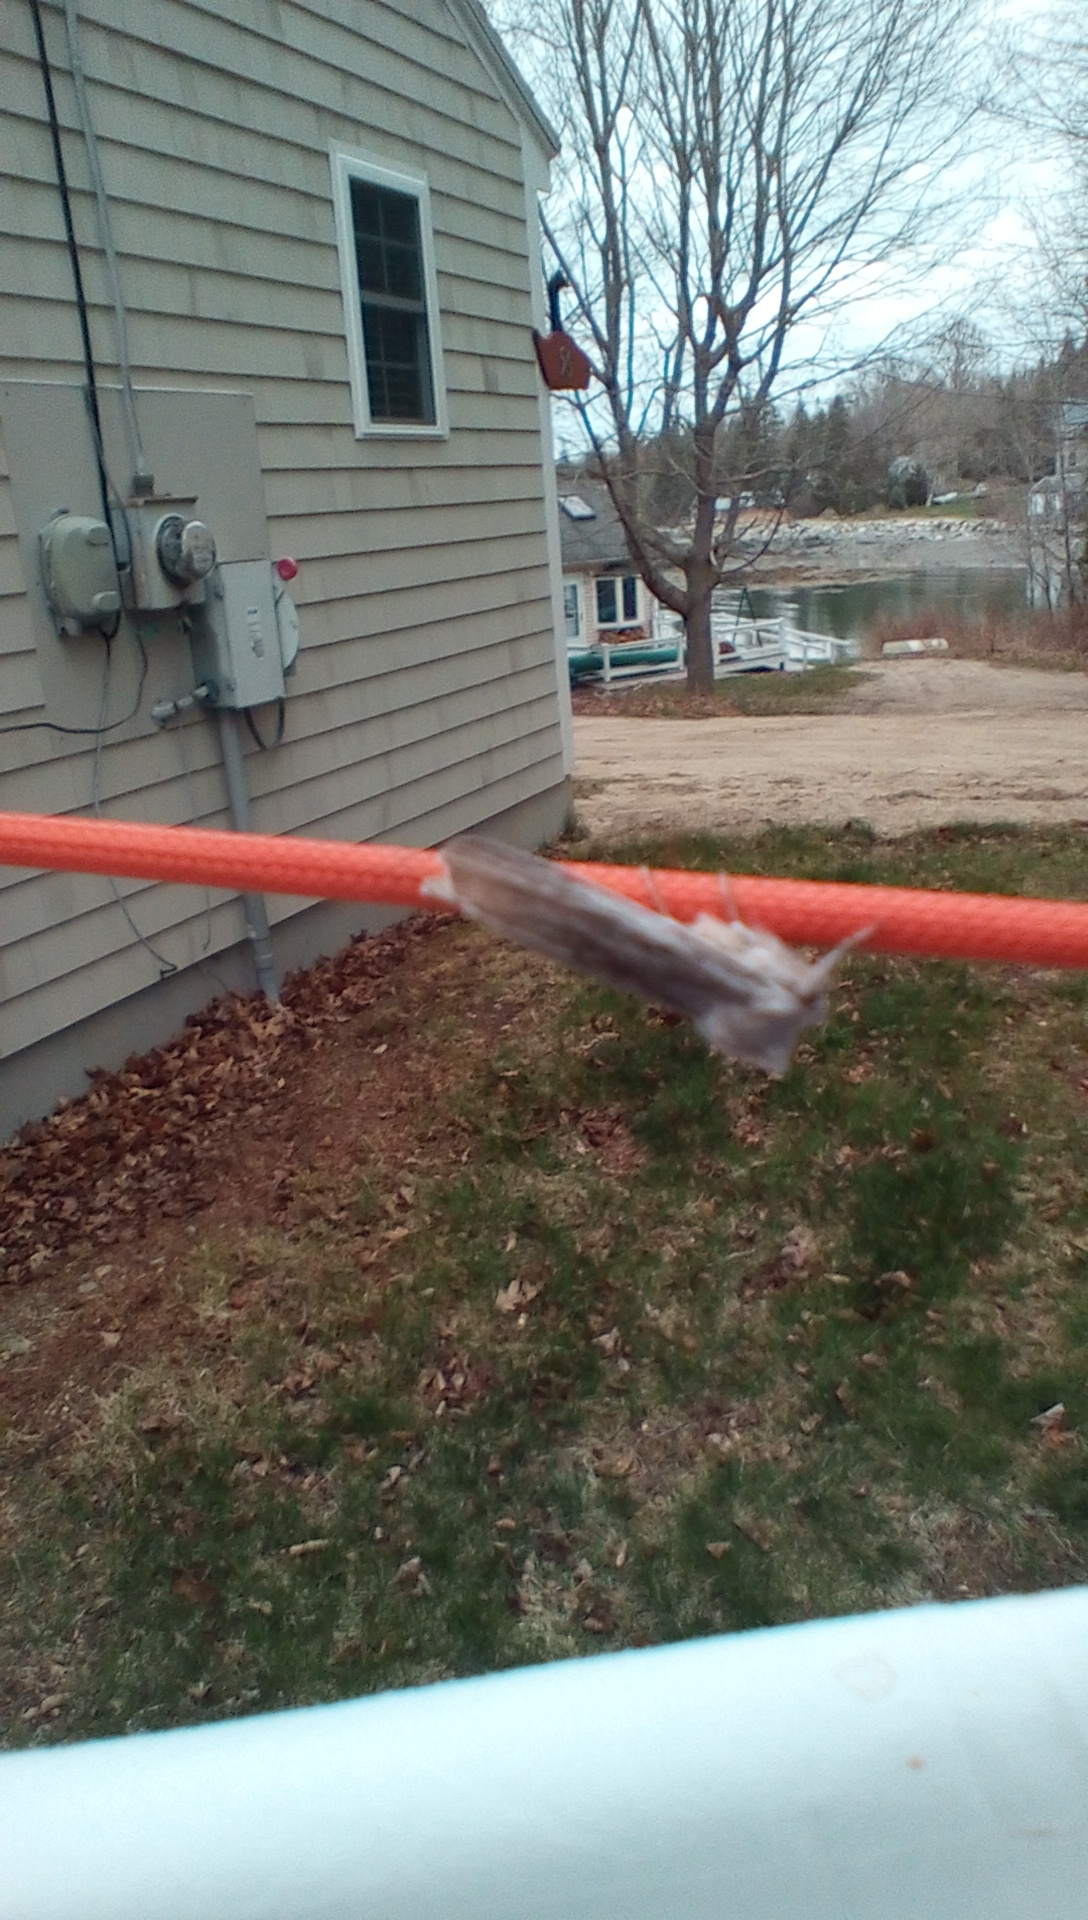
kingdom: Animalia
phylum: Arthropoda
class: Insecta
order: Lepidoptera
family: Noctuidae
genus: Lithophane
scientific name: Lithophane fagina
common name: Hoary pinion moth
